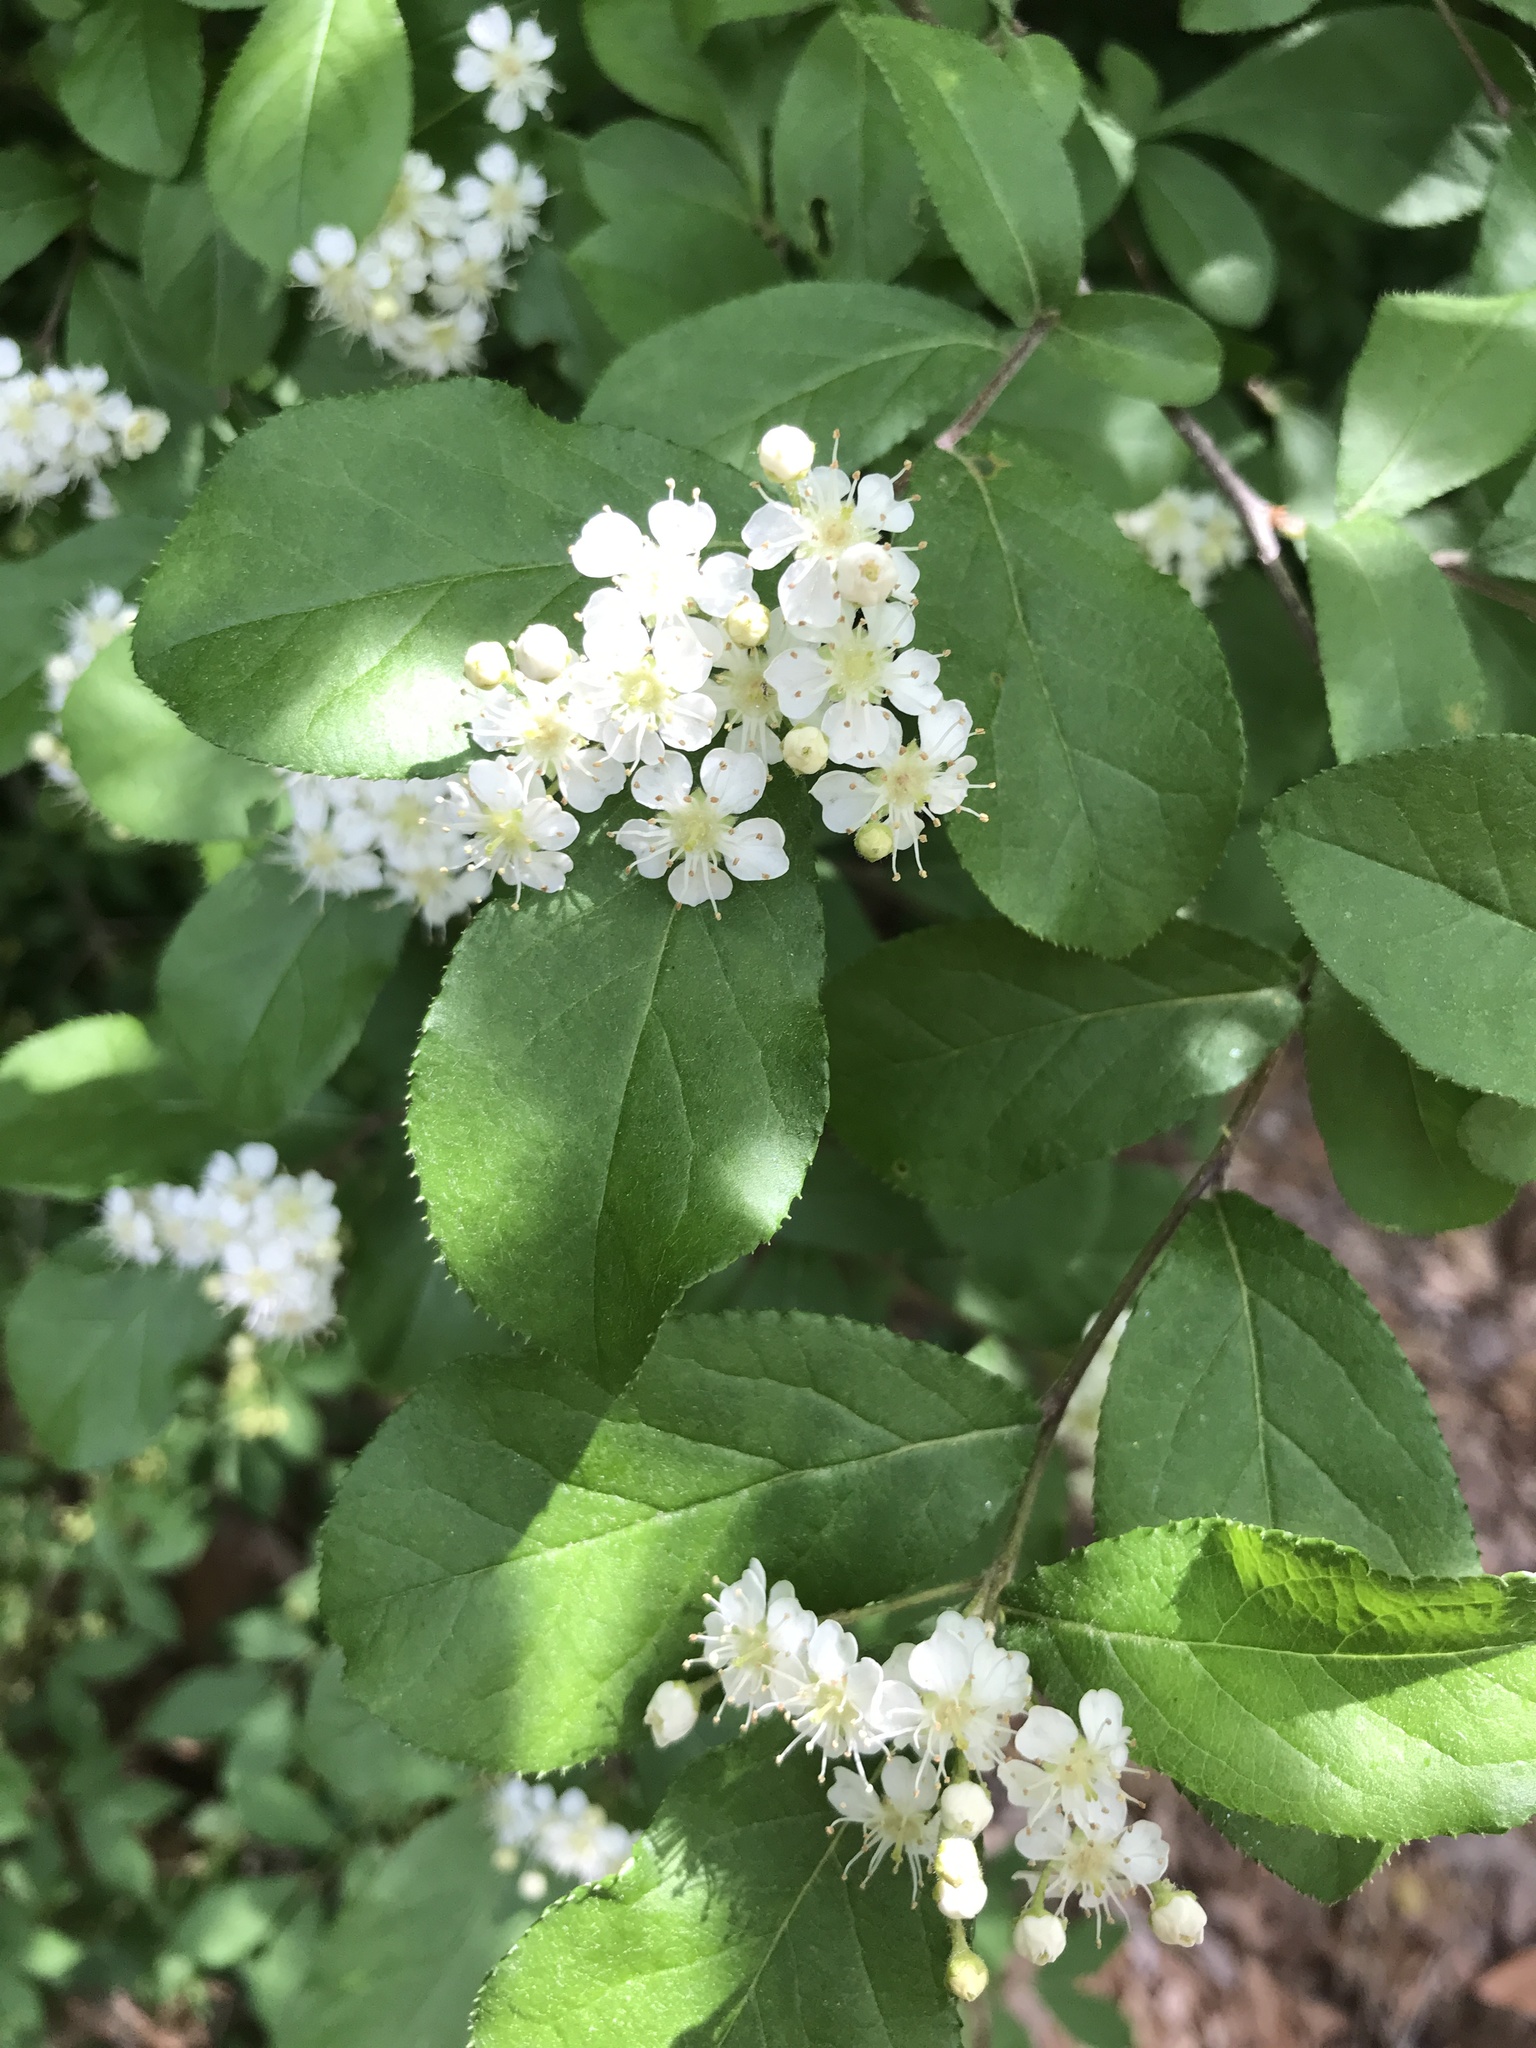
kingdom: Plantae
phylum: Tracheophyta
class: Magnoliopsida
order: Rosales
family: Rosaceae
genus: Pourthiaea
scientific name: Pourthiaea villosa
